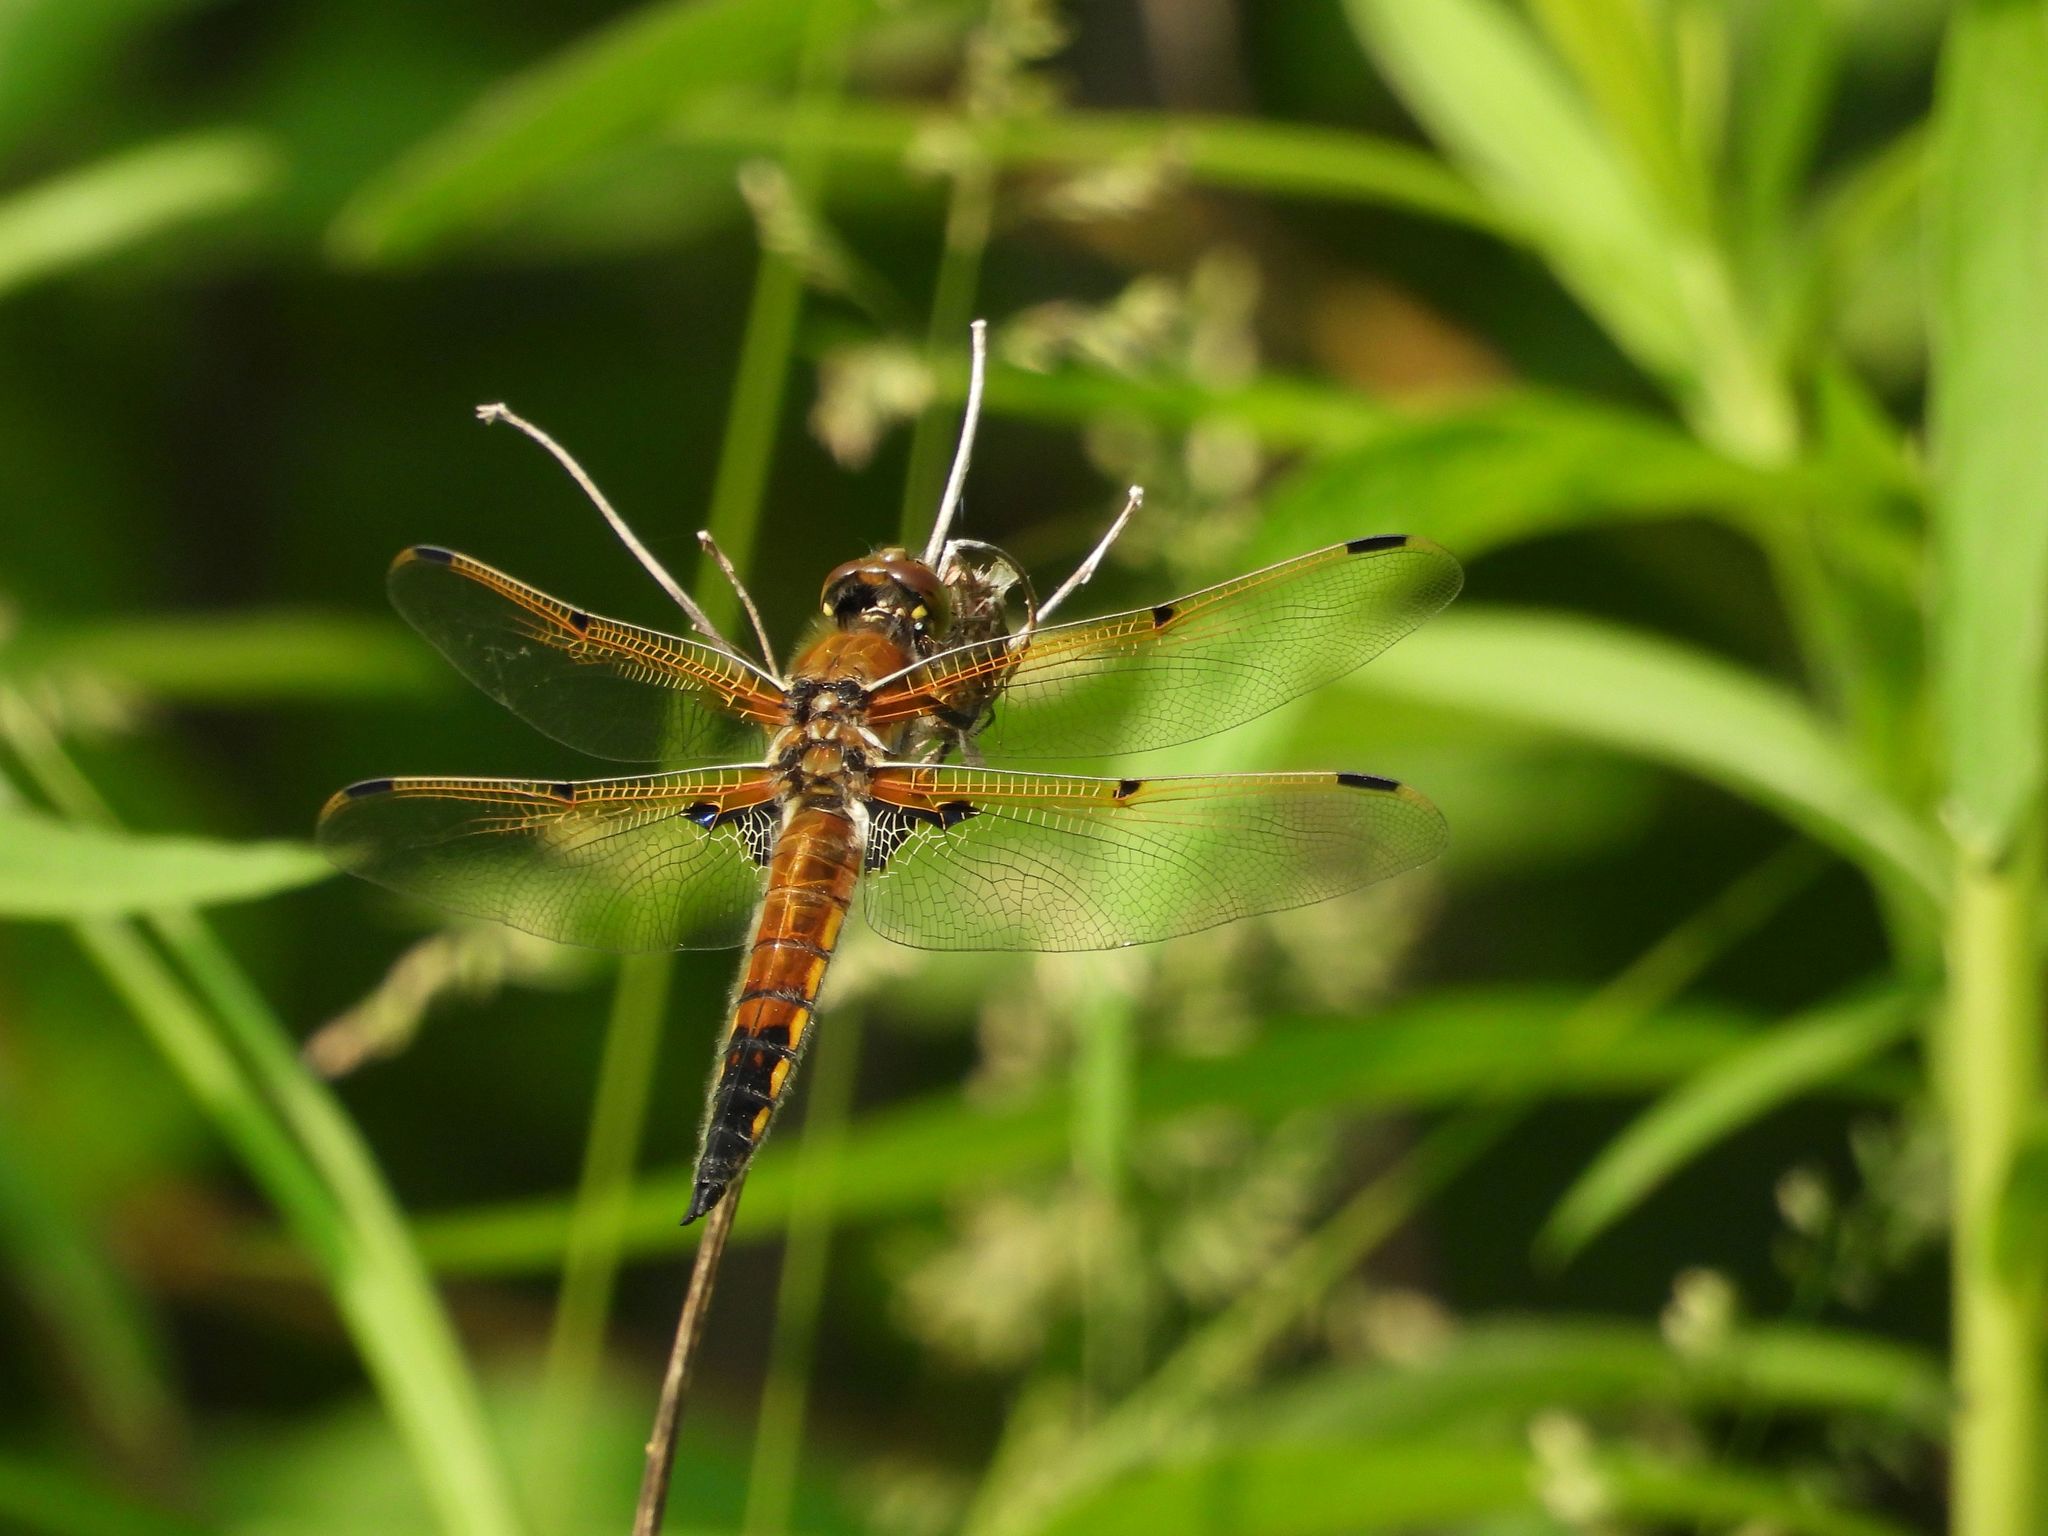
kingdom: Animalia
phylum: Arthropoda
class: Insecta
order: Odonata
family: Libellulidae
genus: Libellula
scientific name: Libellula quadrimaculata
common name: Four-spotted chaser
